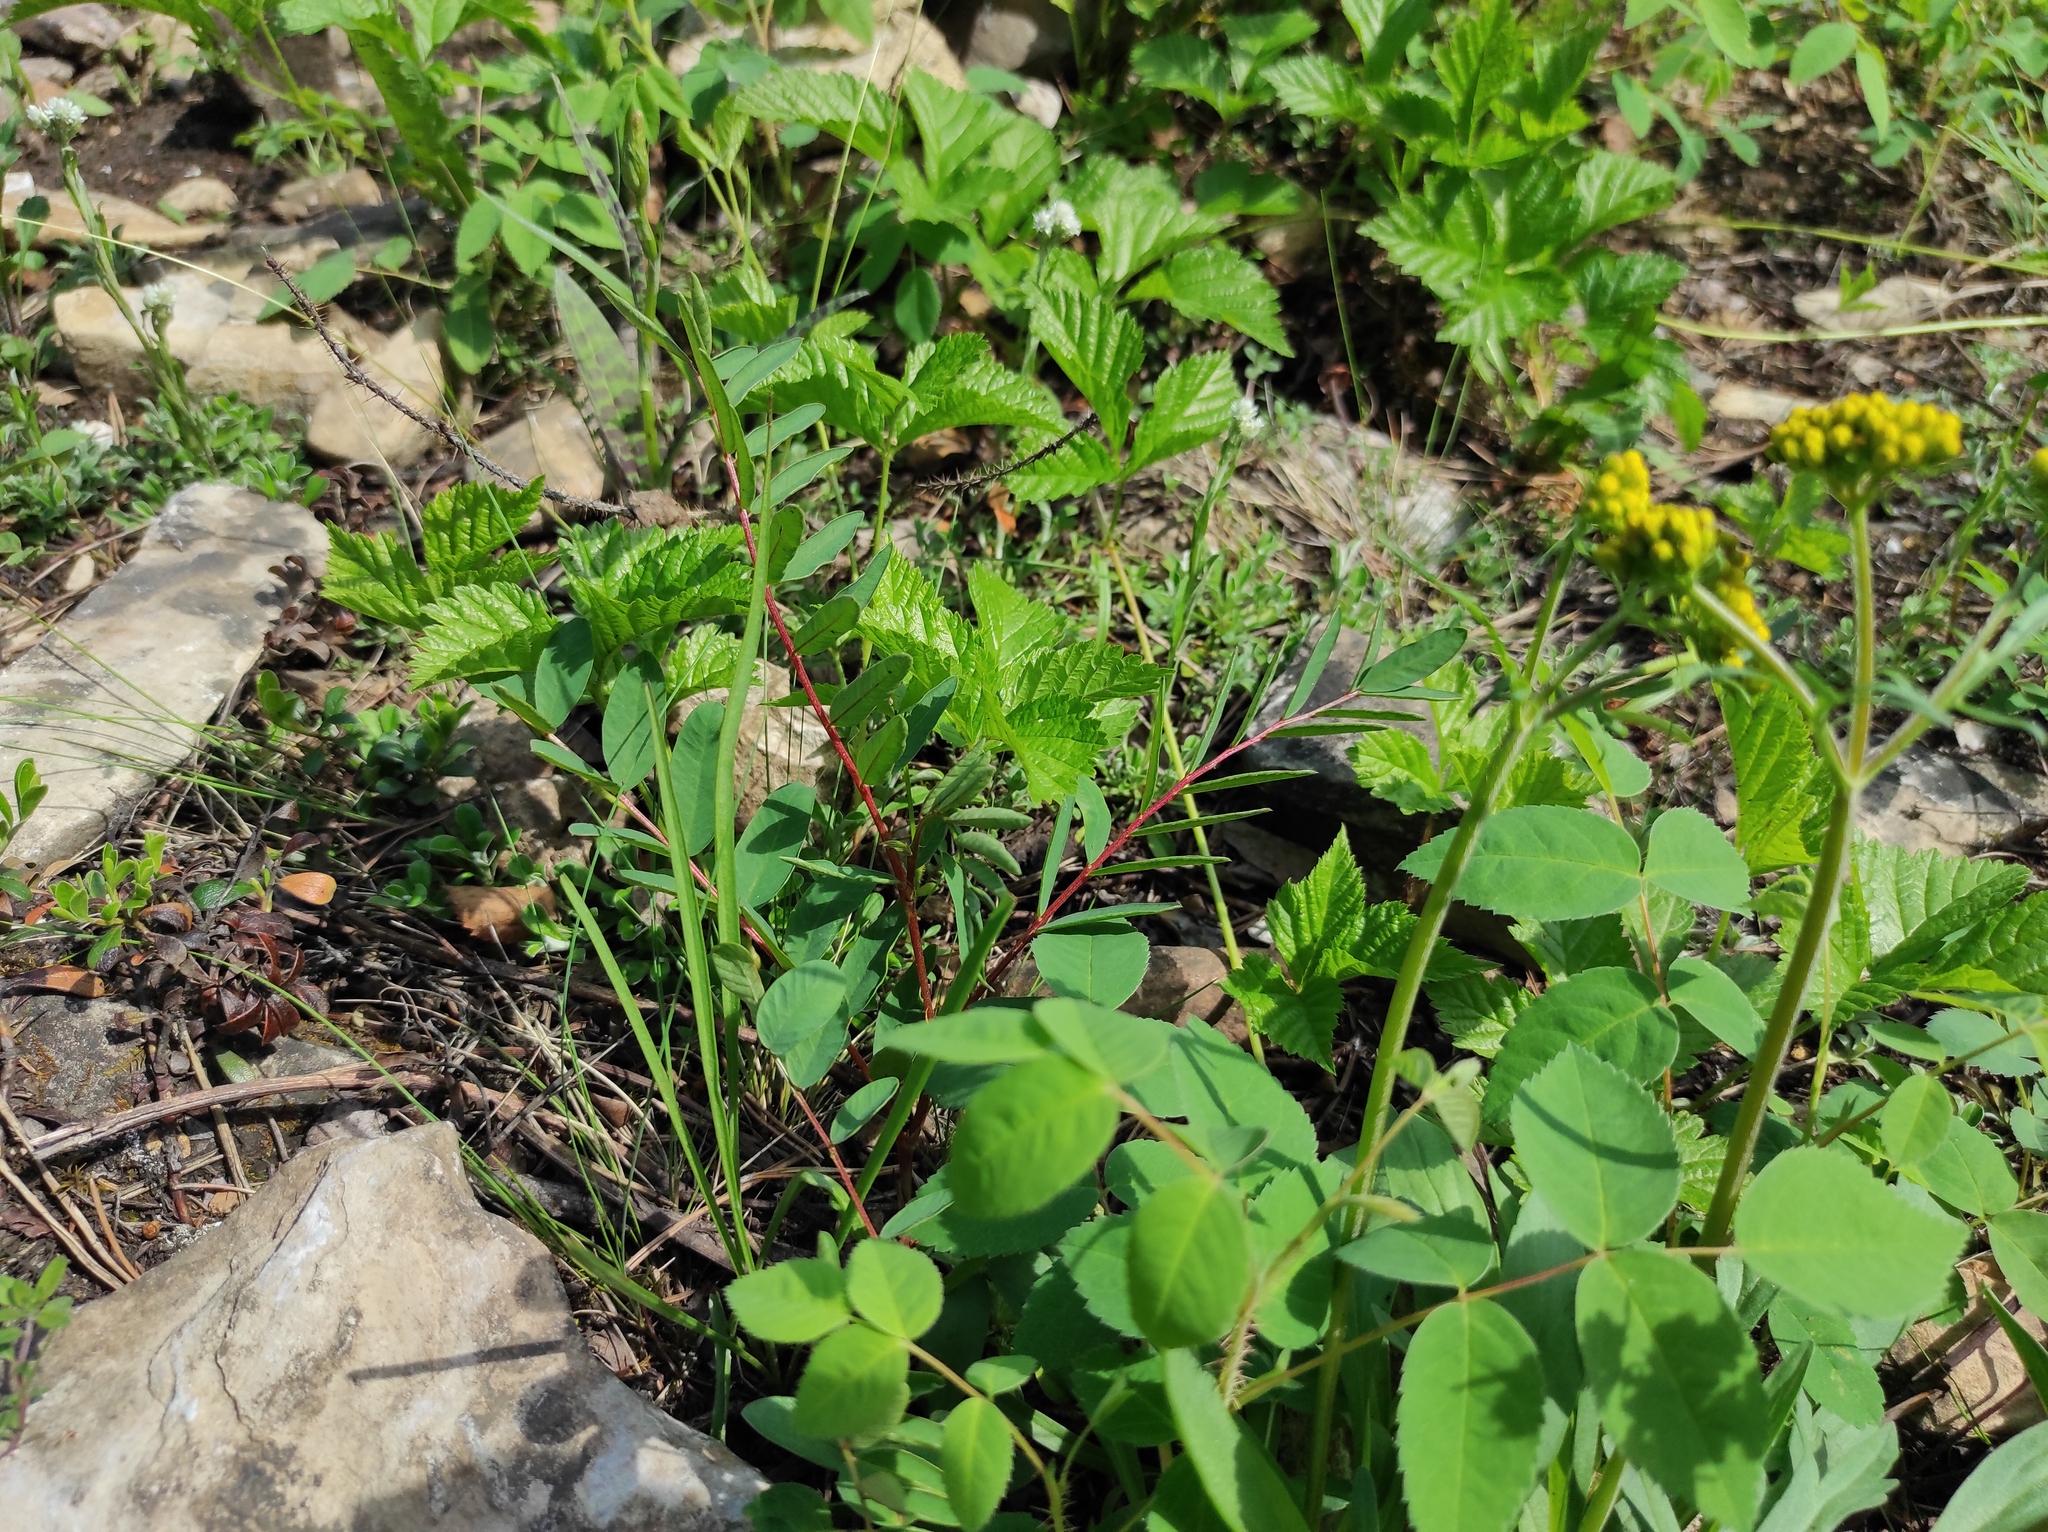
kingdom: Plantae
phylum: Tracheophyta
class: Liliopsida
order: Asparagales
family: Orchidaceae
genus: Dactylorhiza
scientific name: Dactylorhiza maculata
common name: Heath spotted-orchid
